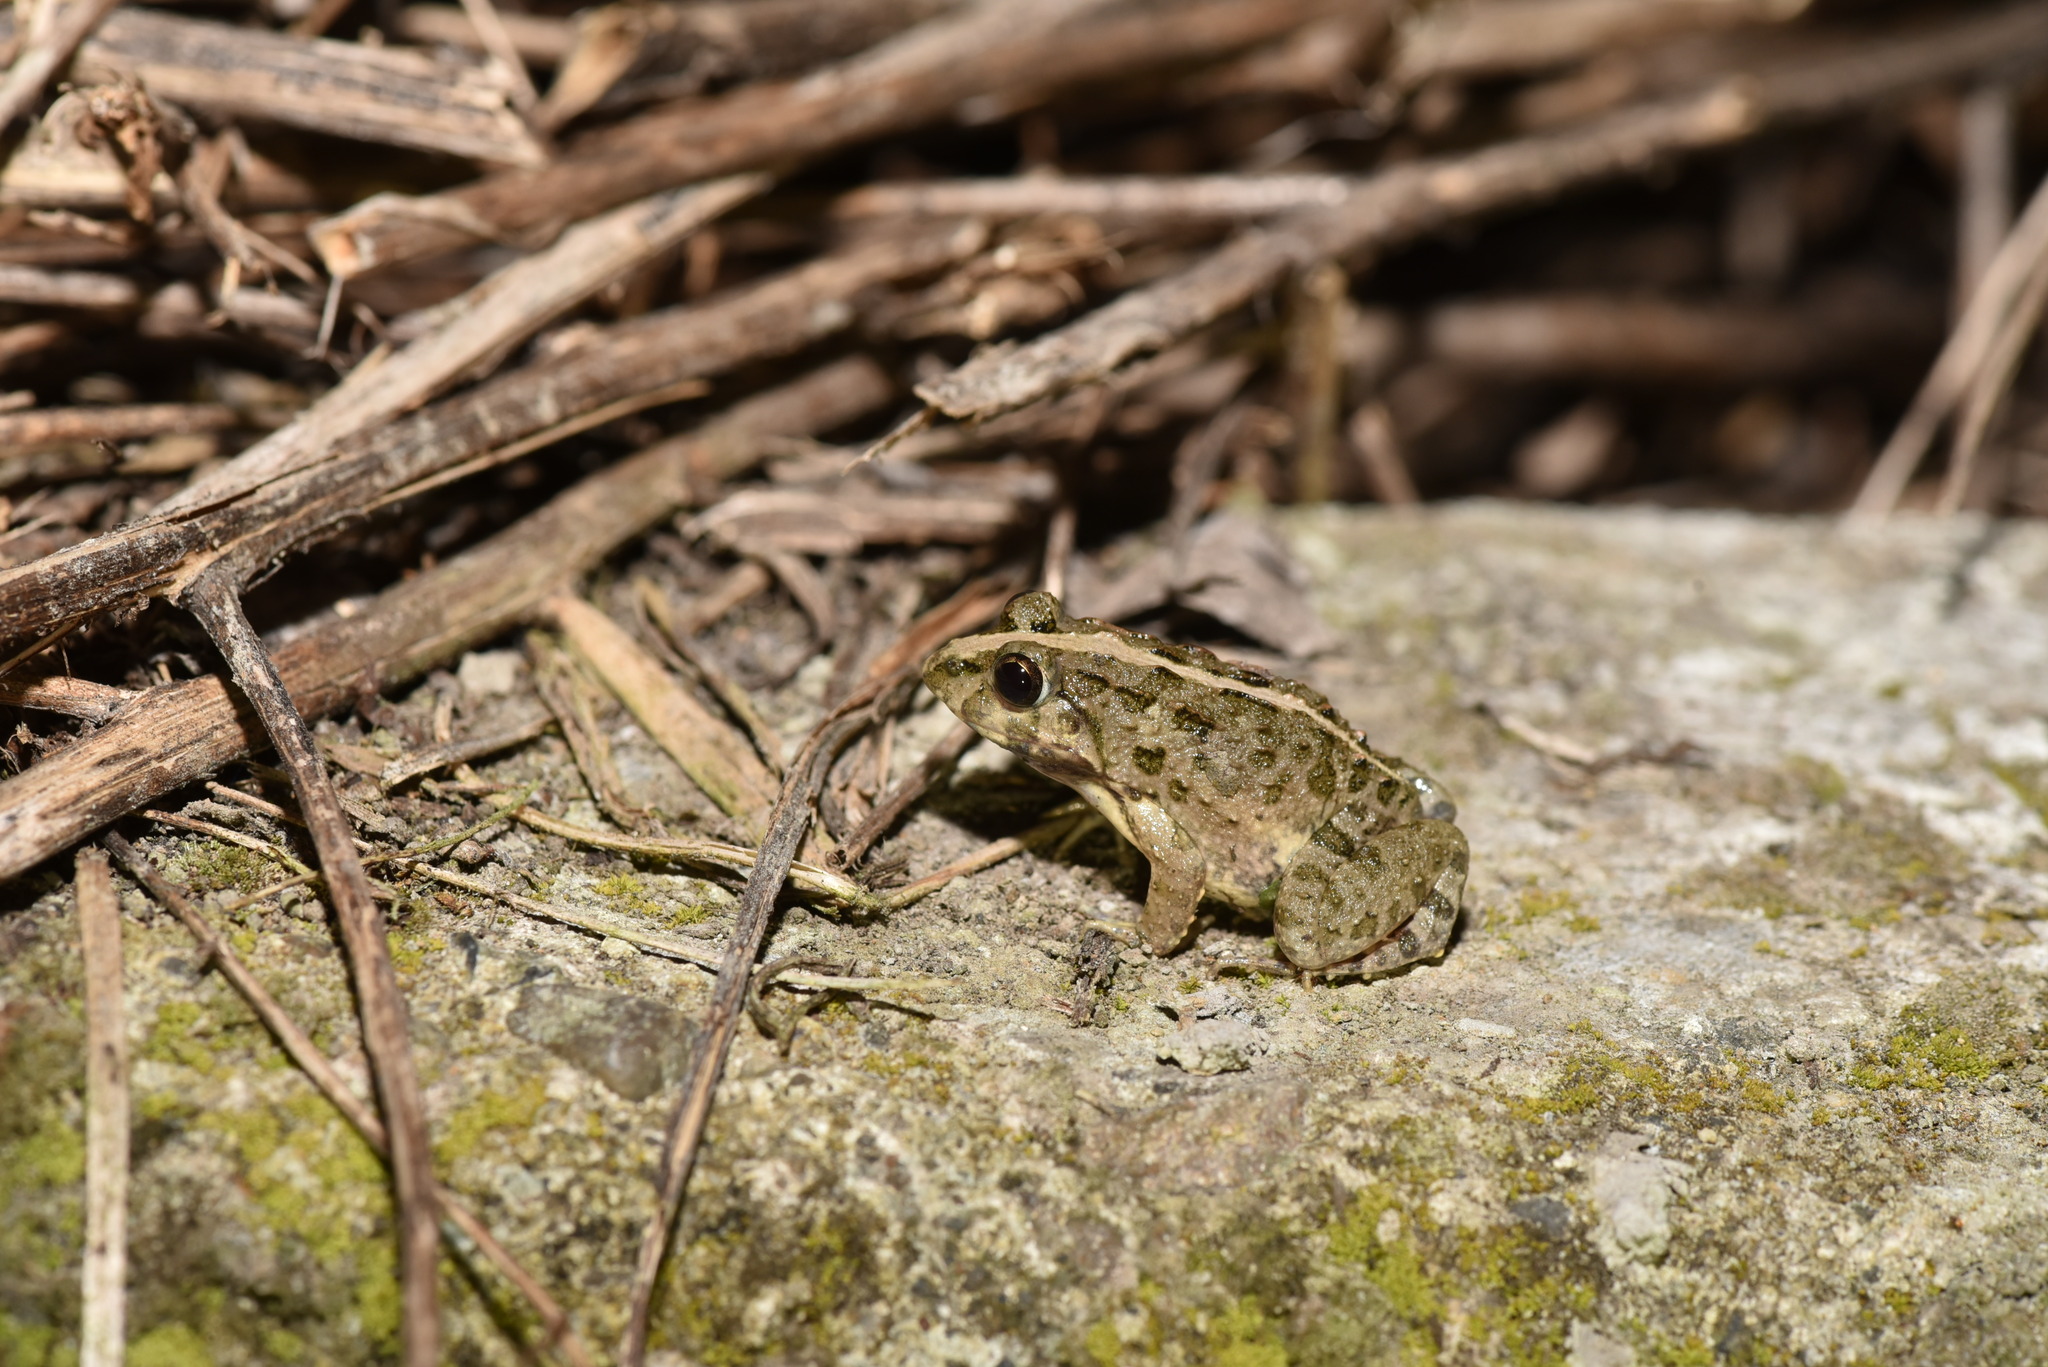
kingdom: Animalia
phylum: Chordata
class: Amphibia
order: Anura
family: Dicroglossidae
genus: Fejervarya
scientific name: Fejervarya limnocharis
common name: Asian grass frog/common pond frog/field frog/grass frog/indian rice frog
